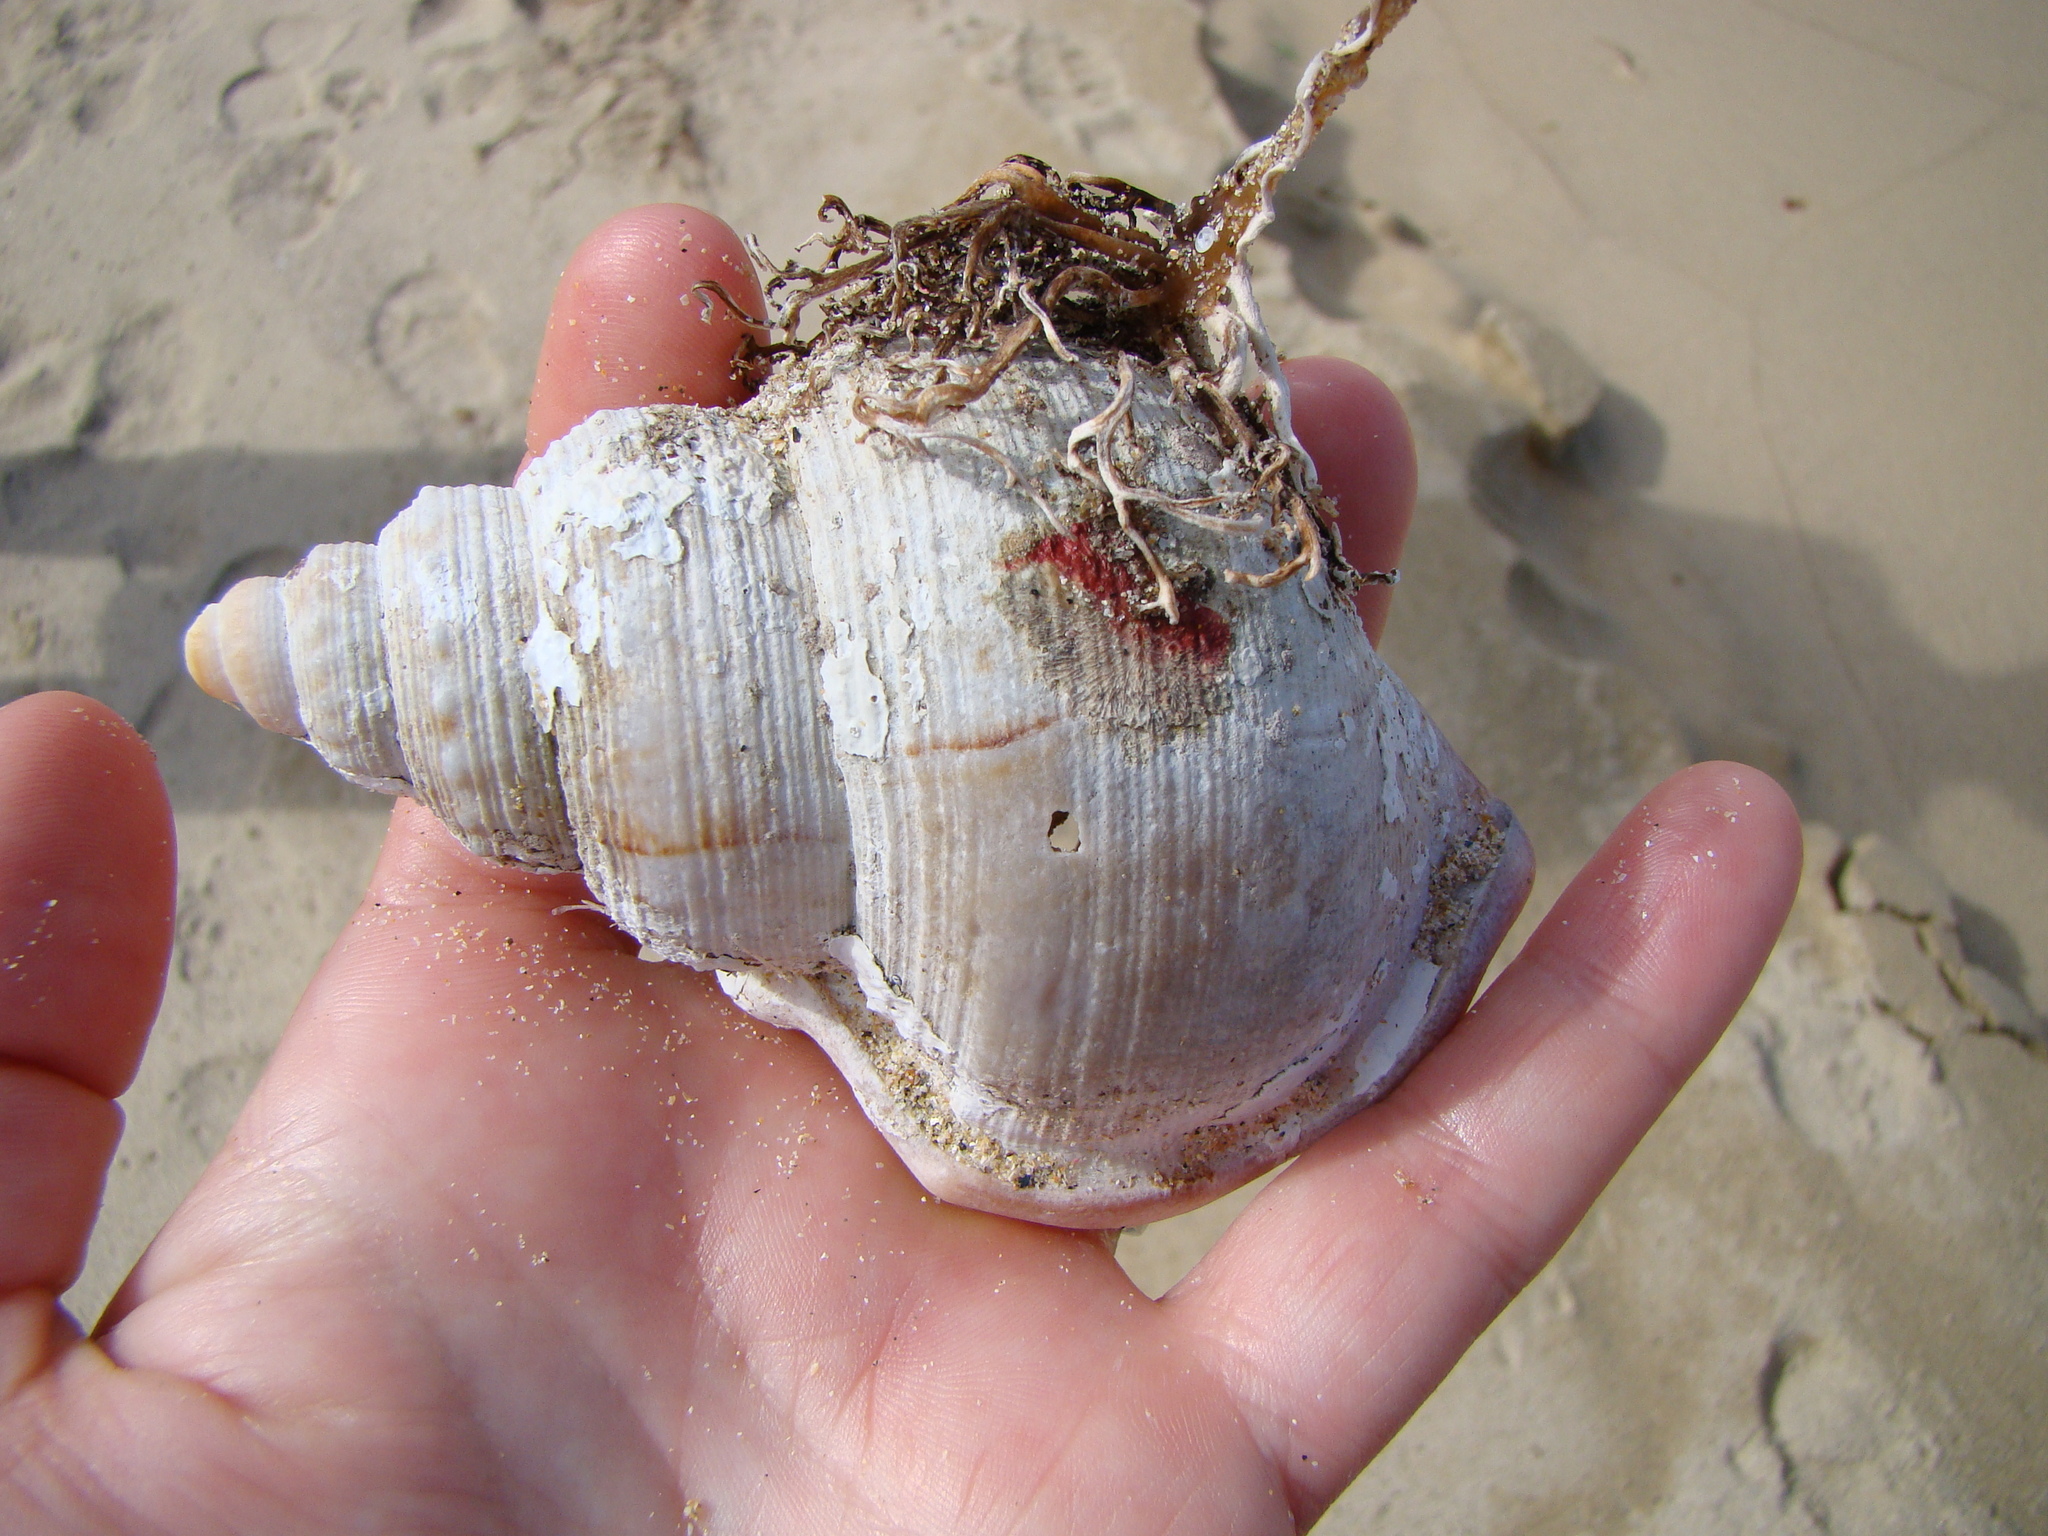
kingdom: Animalia
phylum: Mollusca
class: Gastropoda
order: Littorinimorpha
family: Struthiolariidae
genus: Struthiolaria
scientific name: Struthiolaria papulosa
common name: Large ostrich foot
